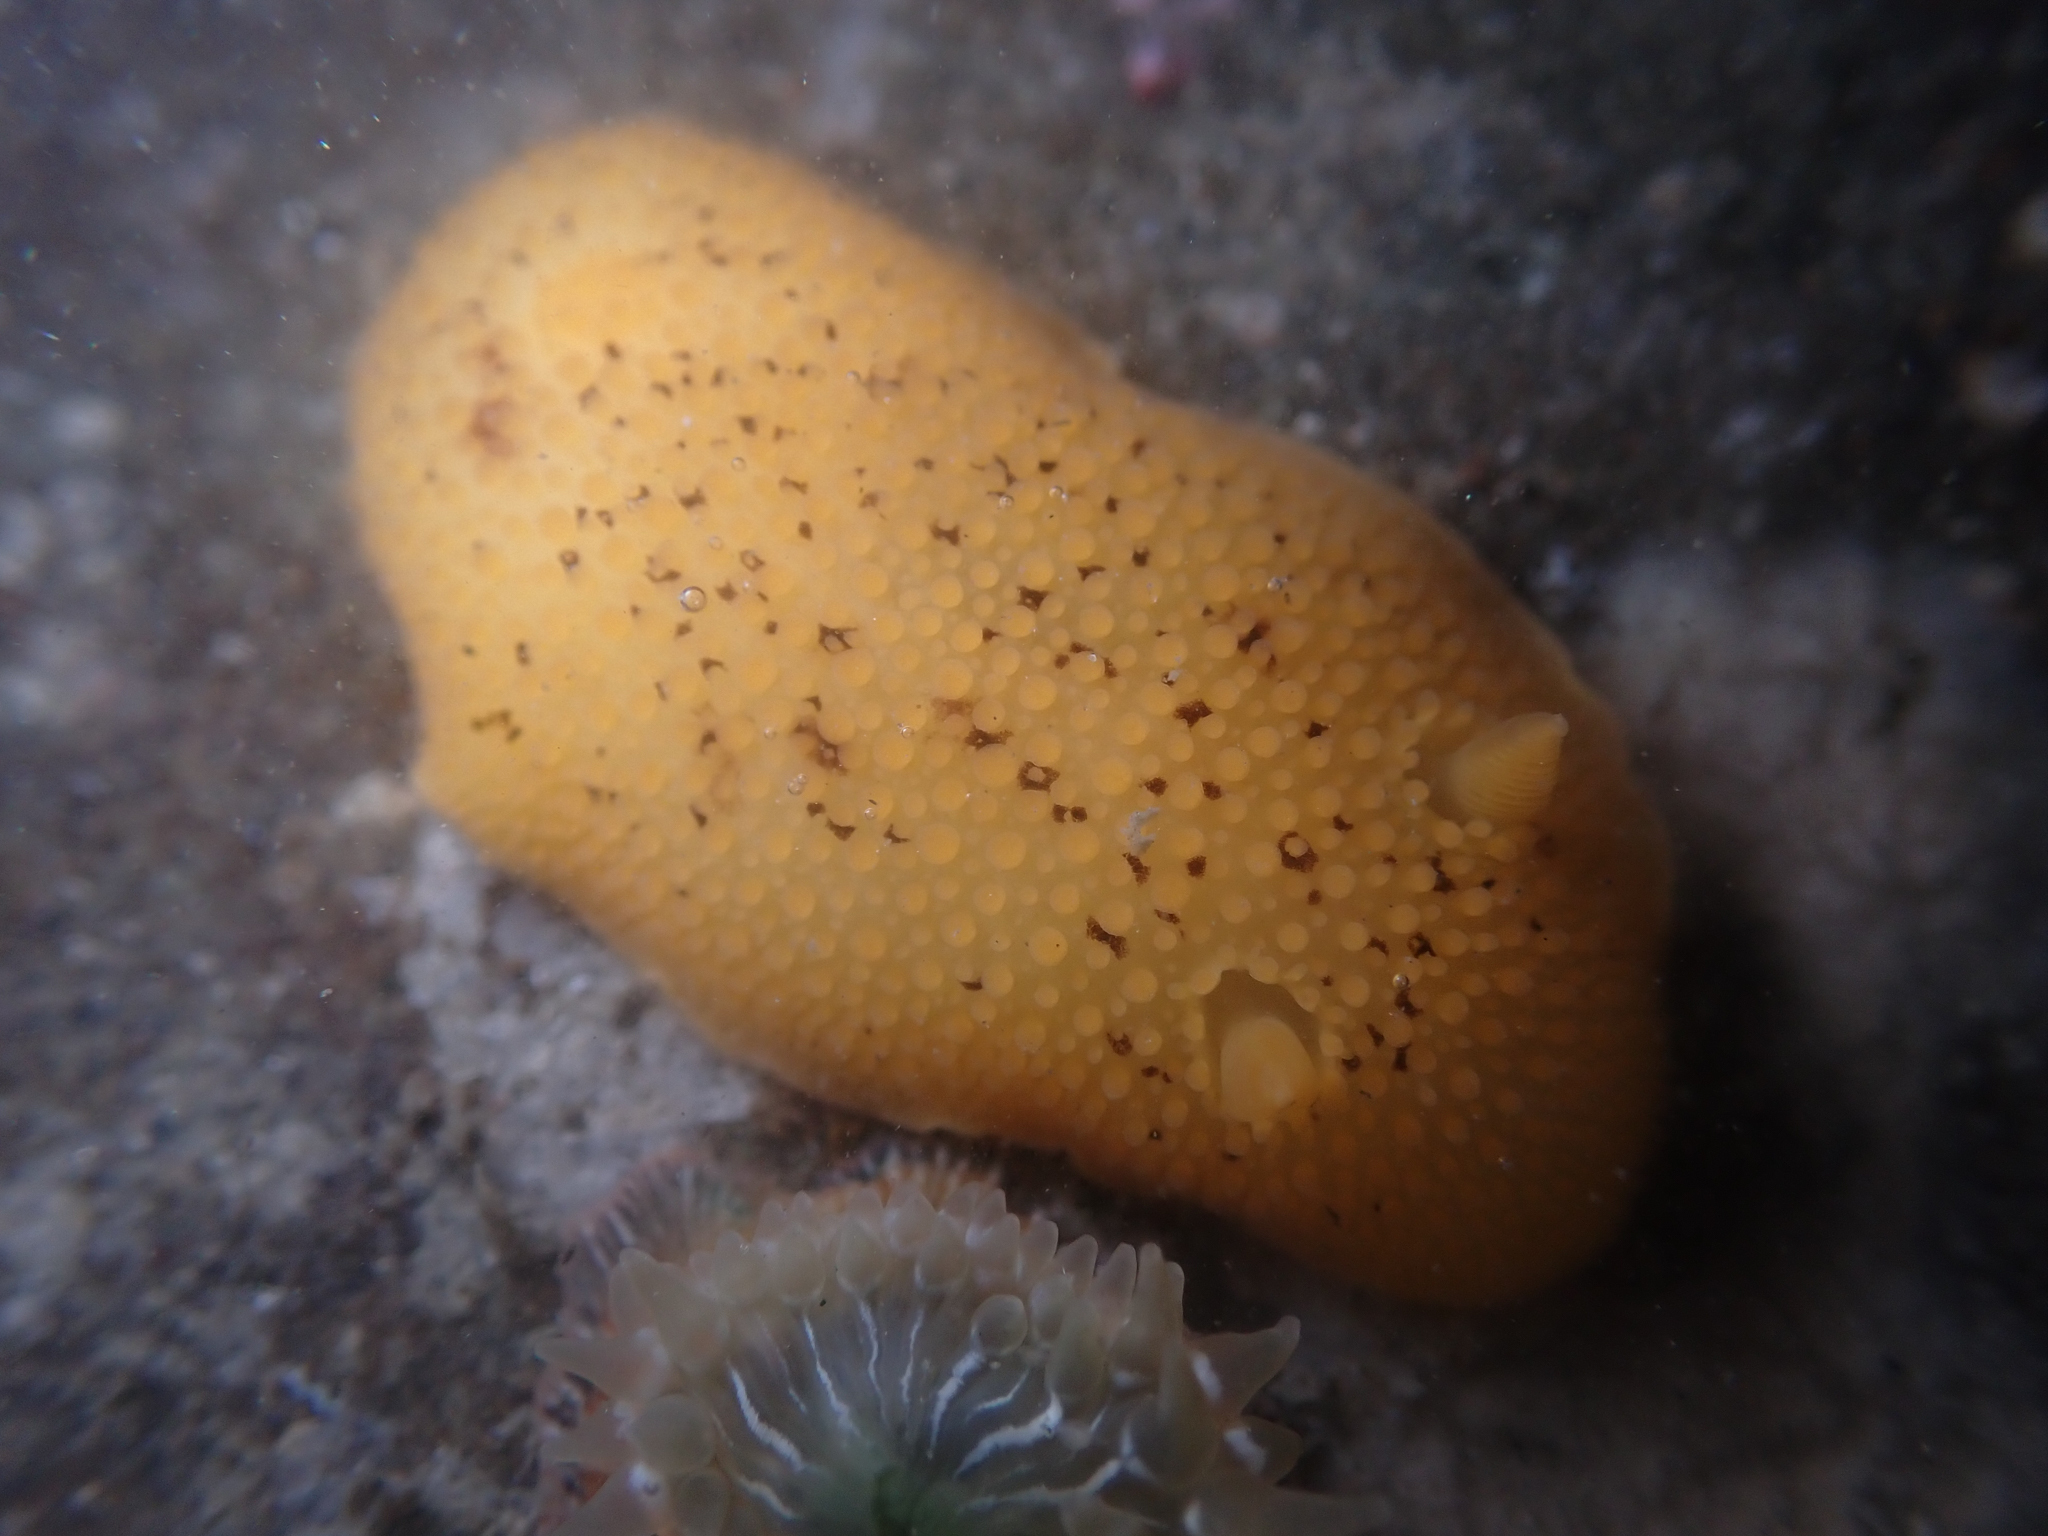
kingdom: Animalia
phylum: Mollusca
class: Gastropoda
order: Nudibranchia
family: Discodorididae
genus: Peltodoris
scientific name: Peltodoris nobilis
